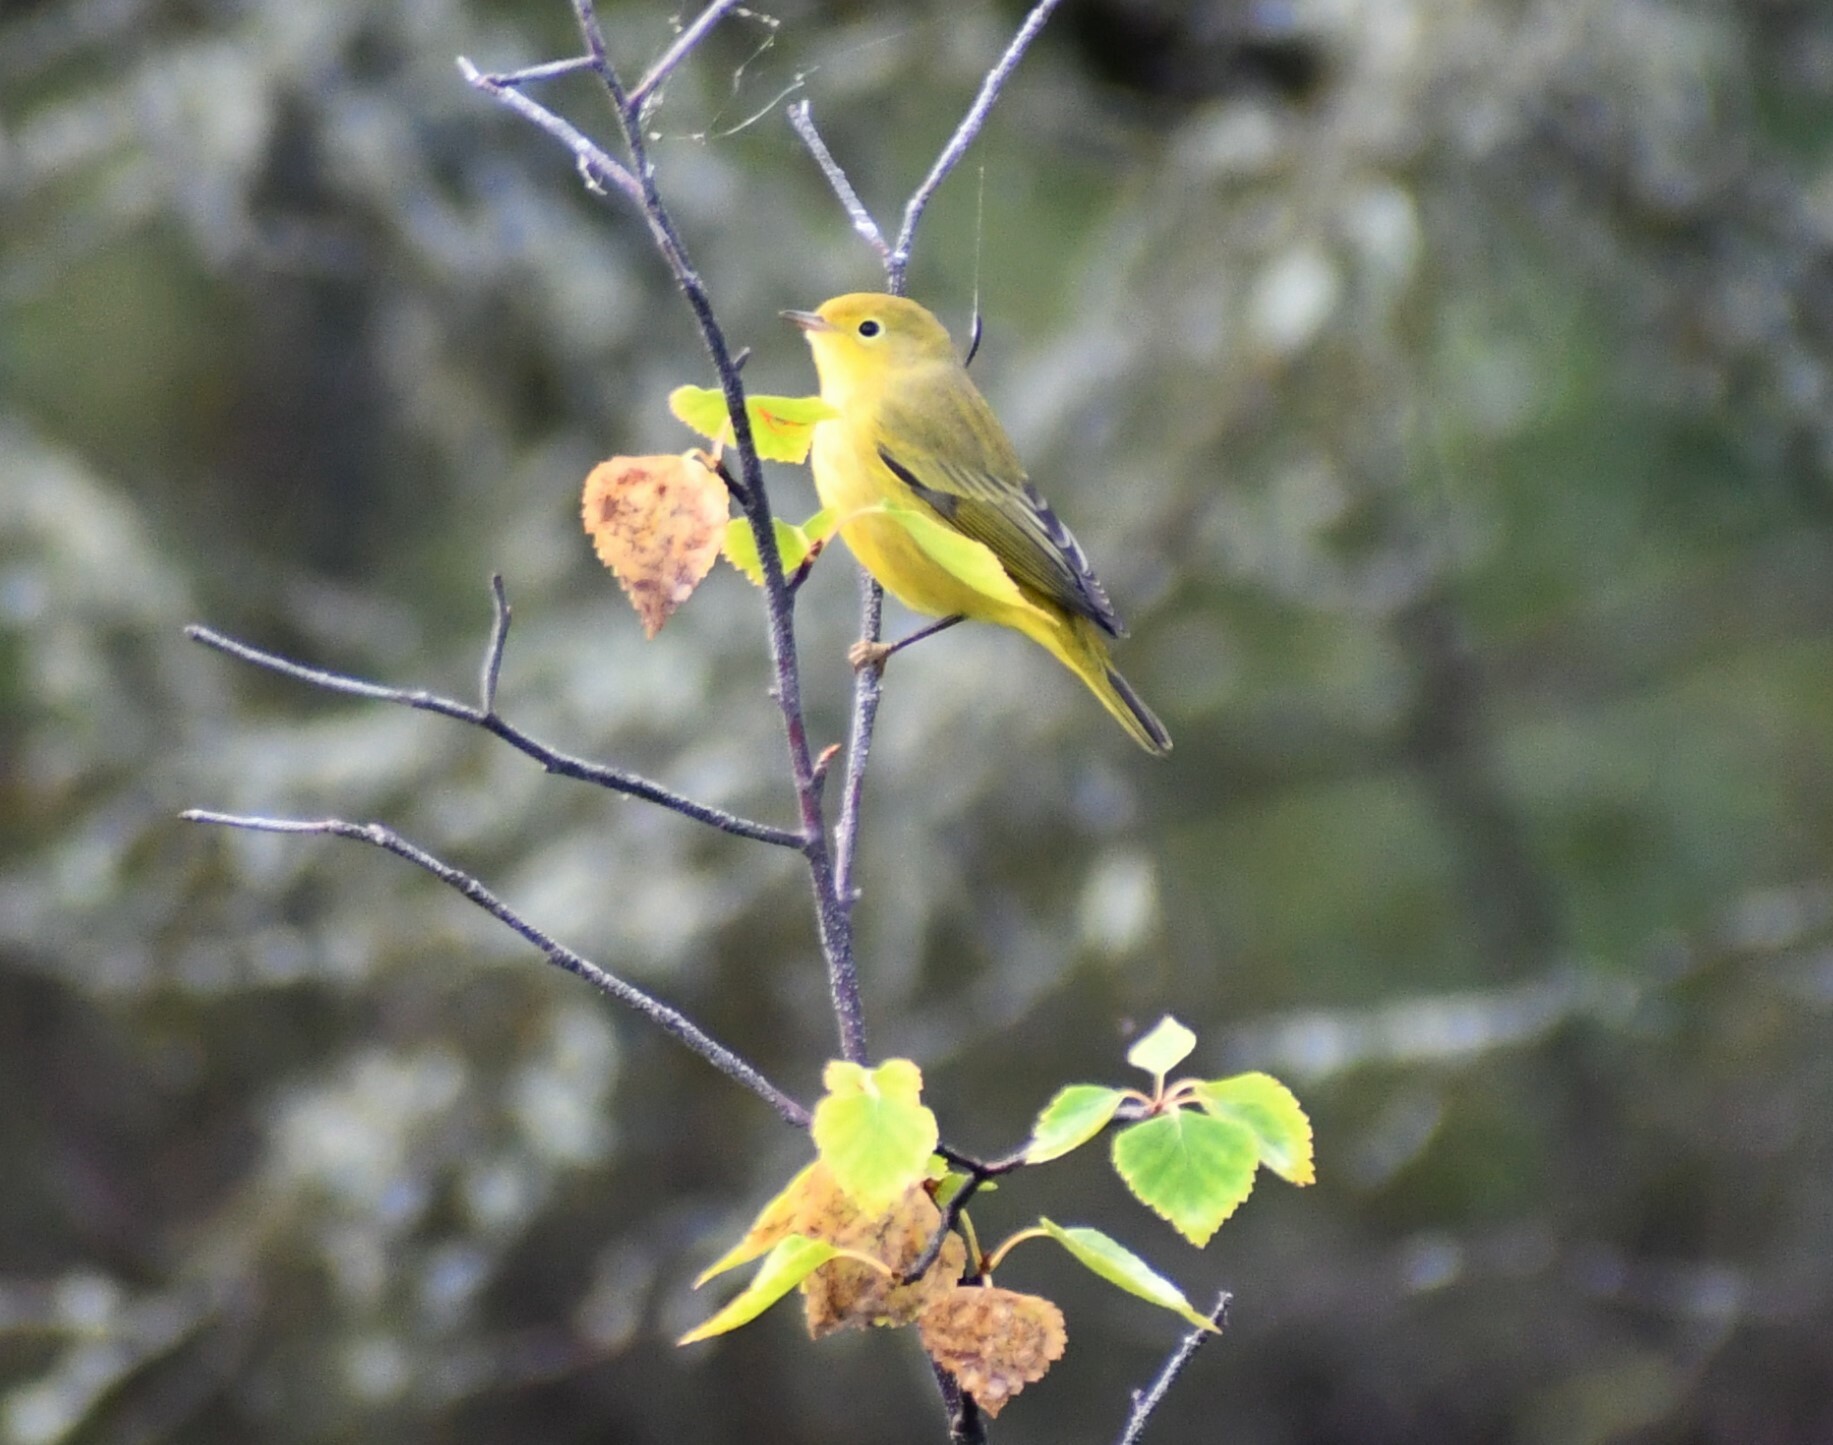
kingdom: Animalia
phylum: Chordata
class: Aves
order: Passeriformes
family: Parulidae
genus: Setophaga
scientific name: Setophaga petechia
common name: Yellow warbler
